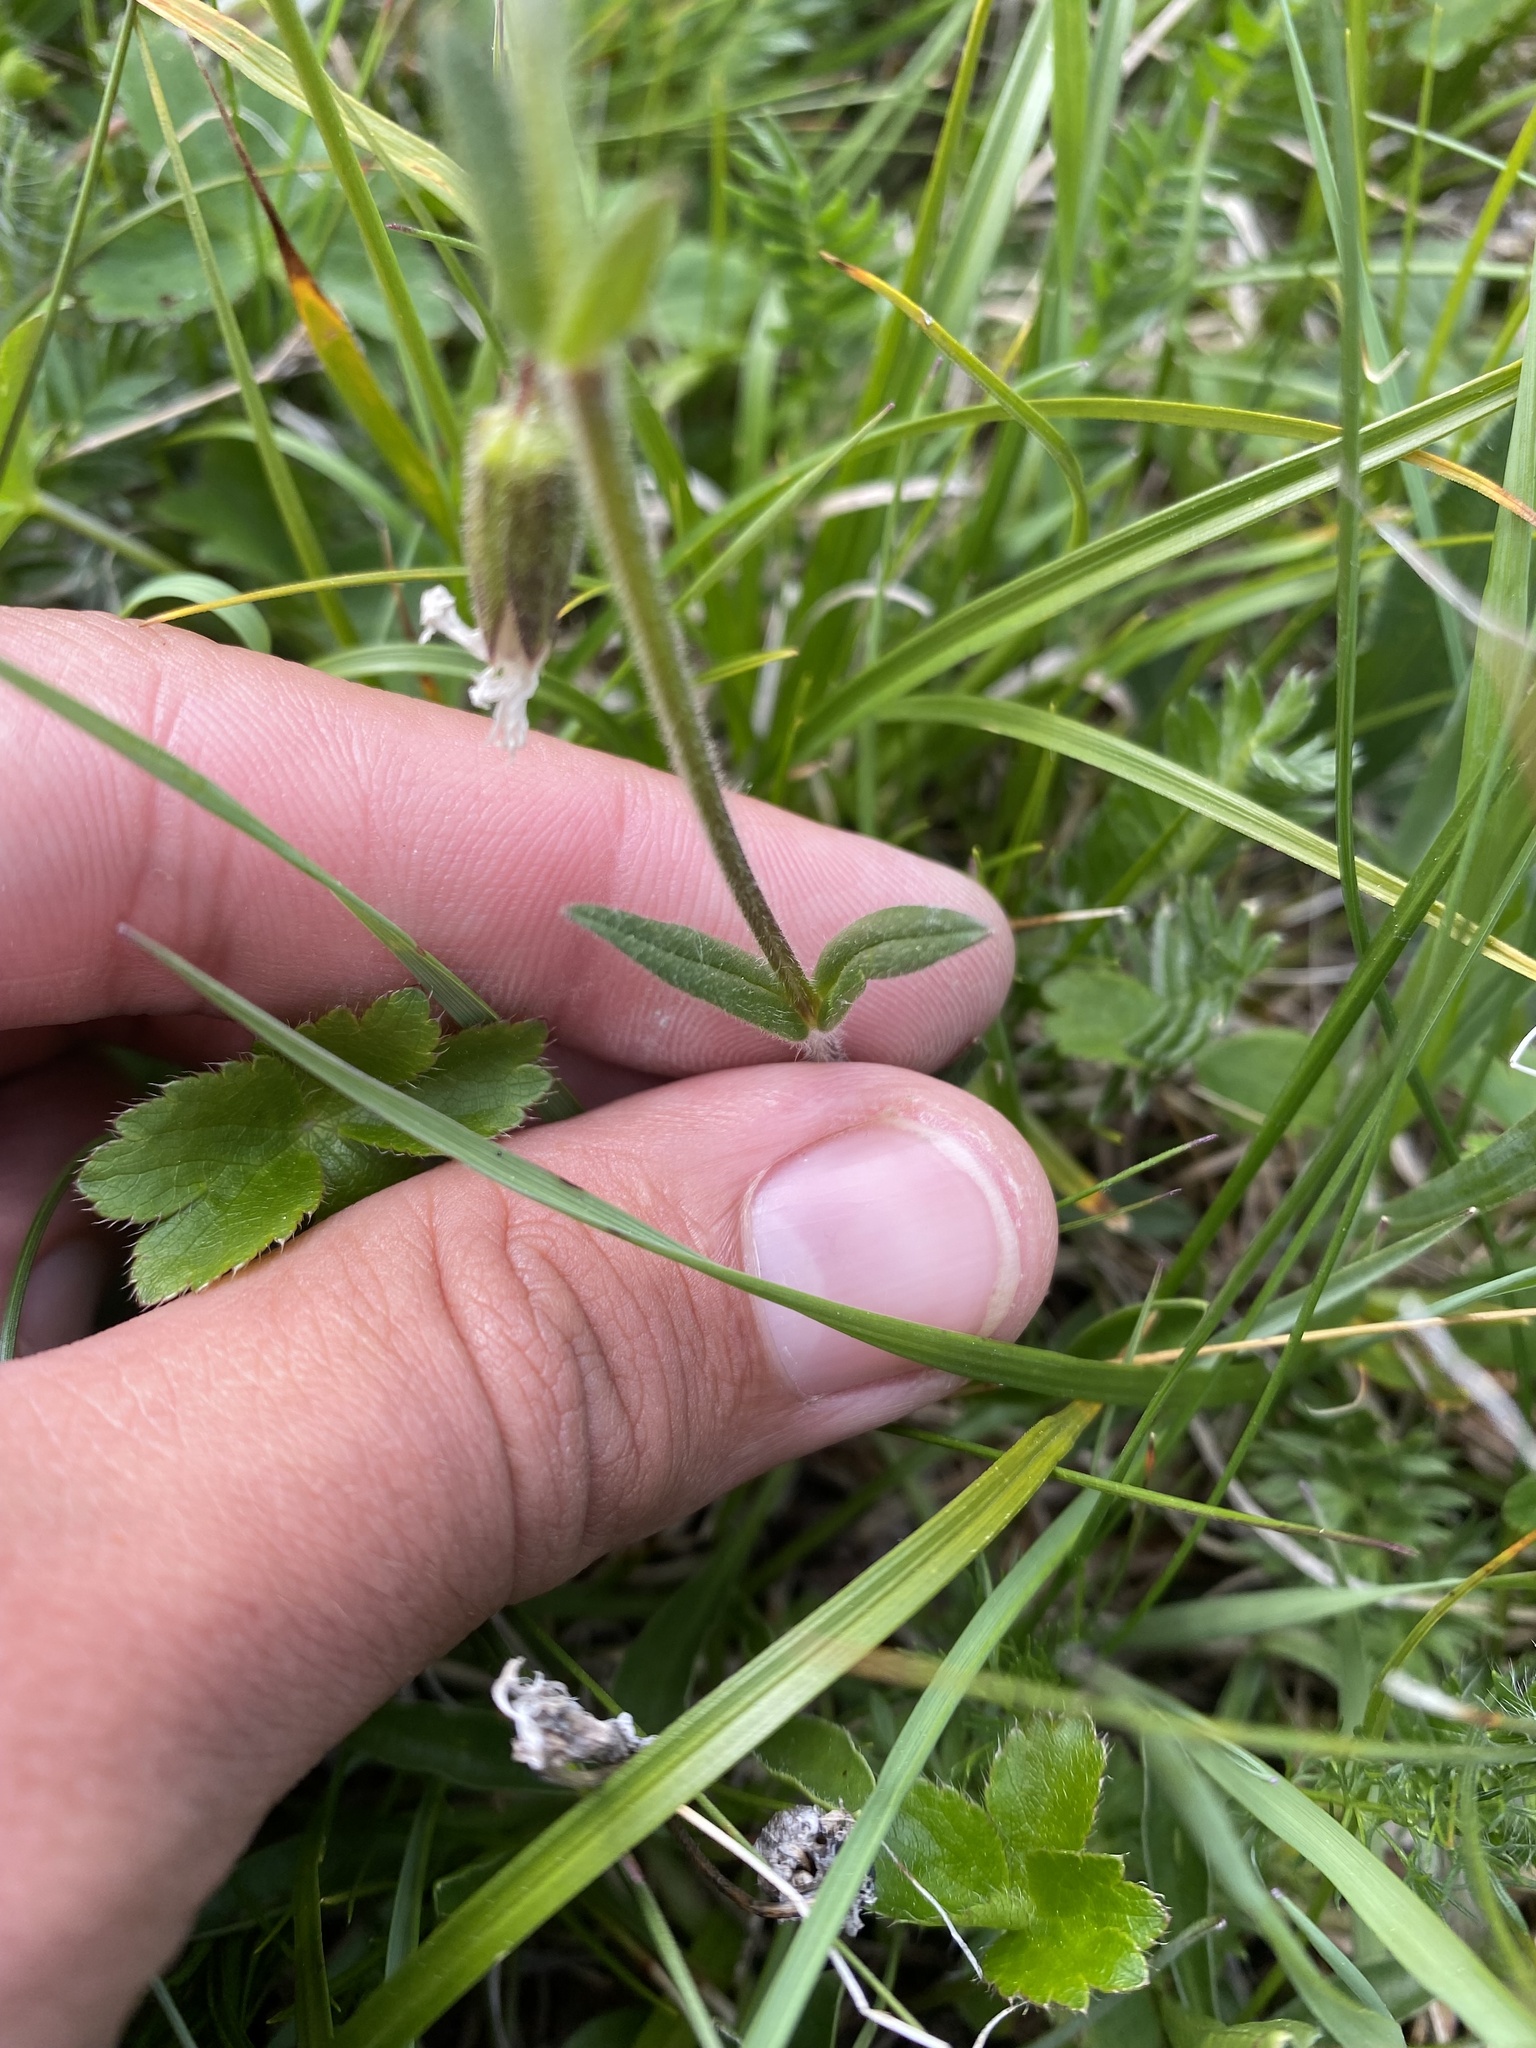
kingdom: Plantae
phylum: Tracheophyta
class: Magnoliopsida
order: Caryophyllales
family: Caryophyllaceae
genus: Dichodon
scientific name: Dichodon cerastoides
